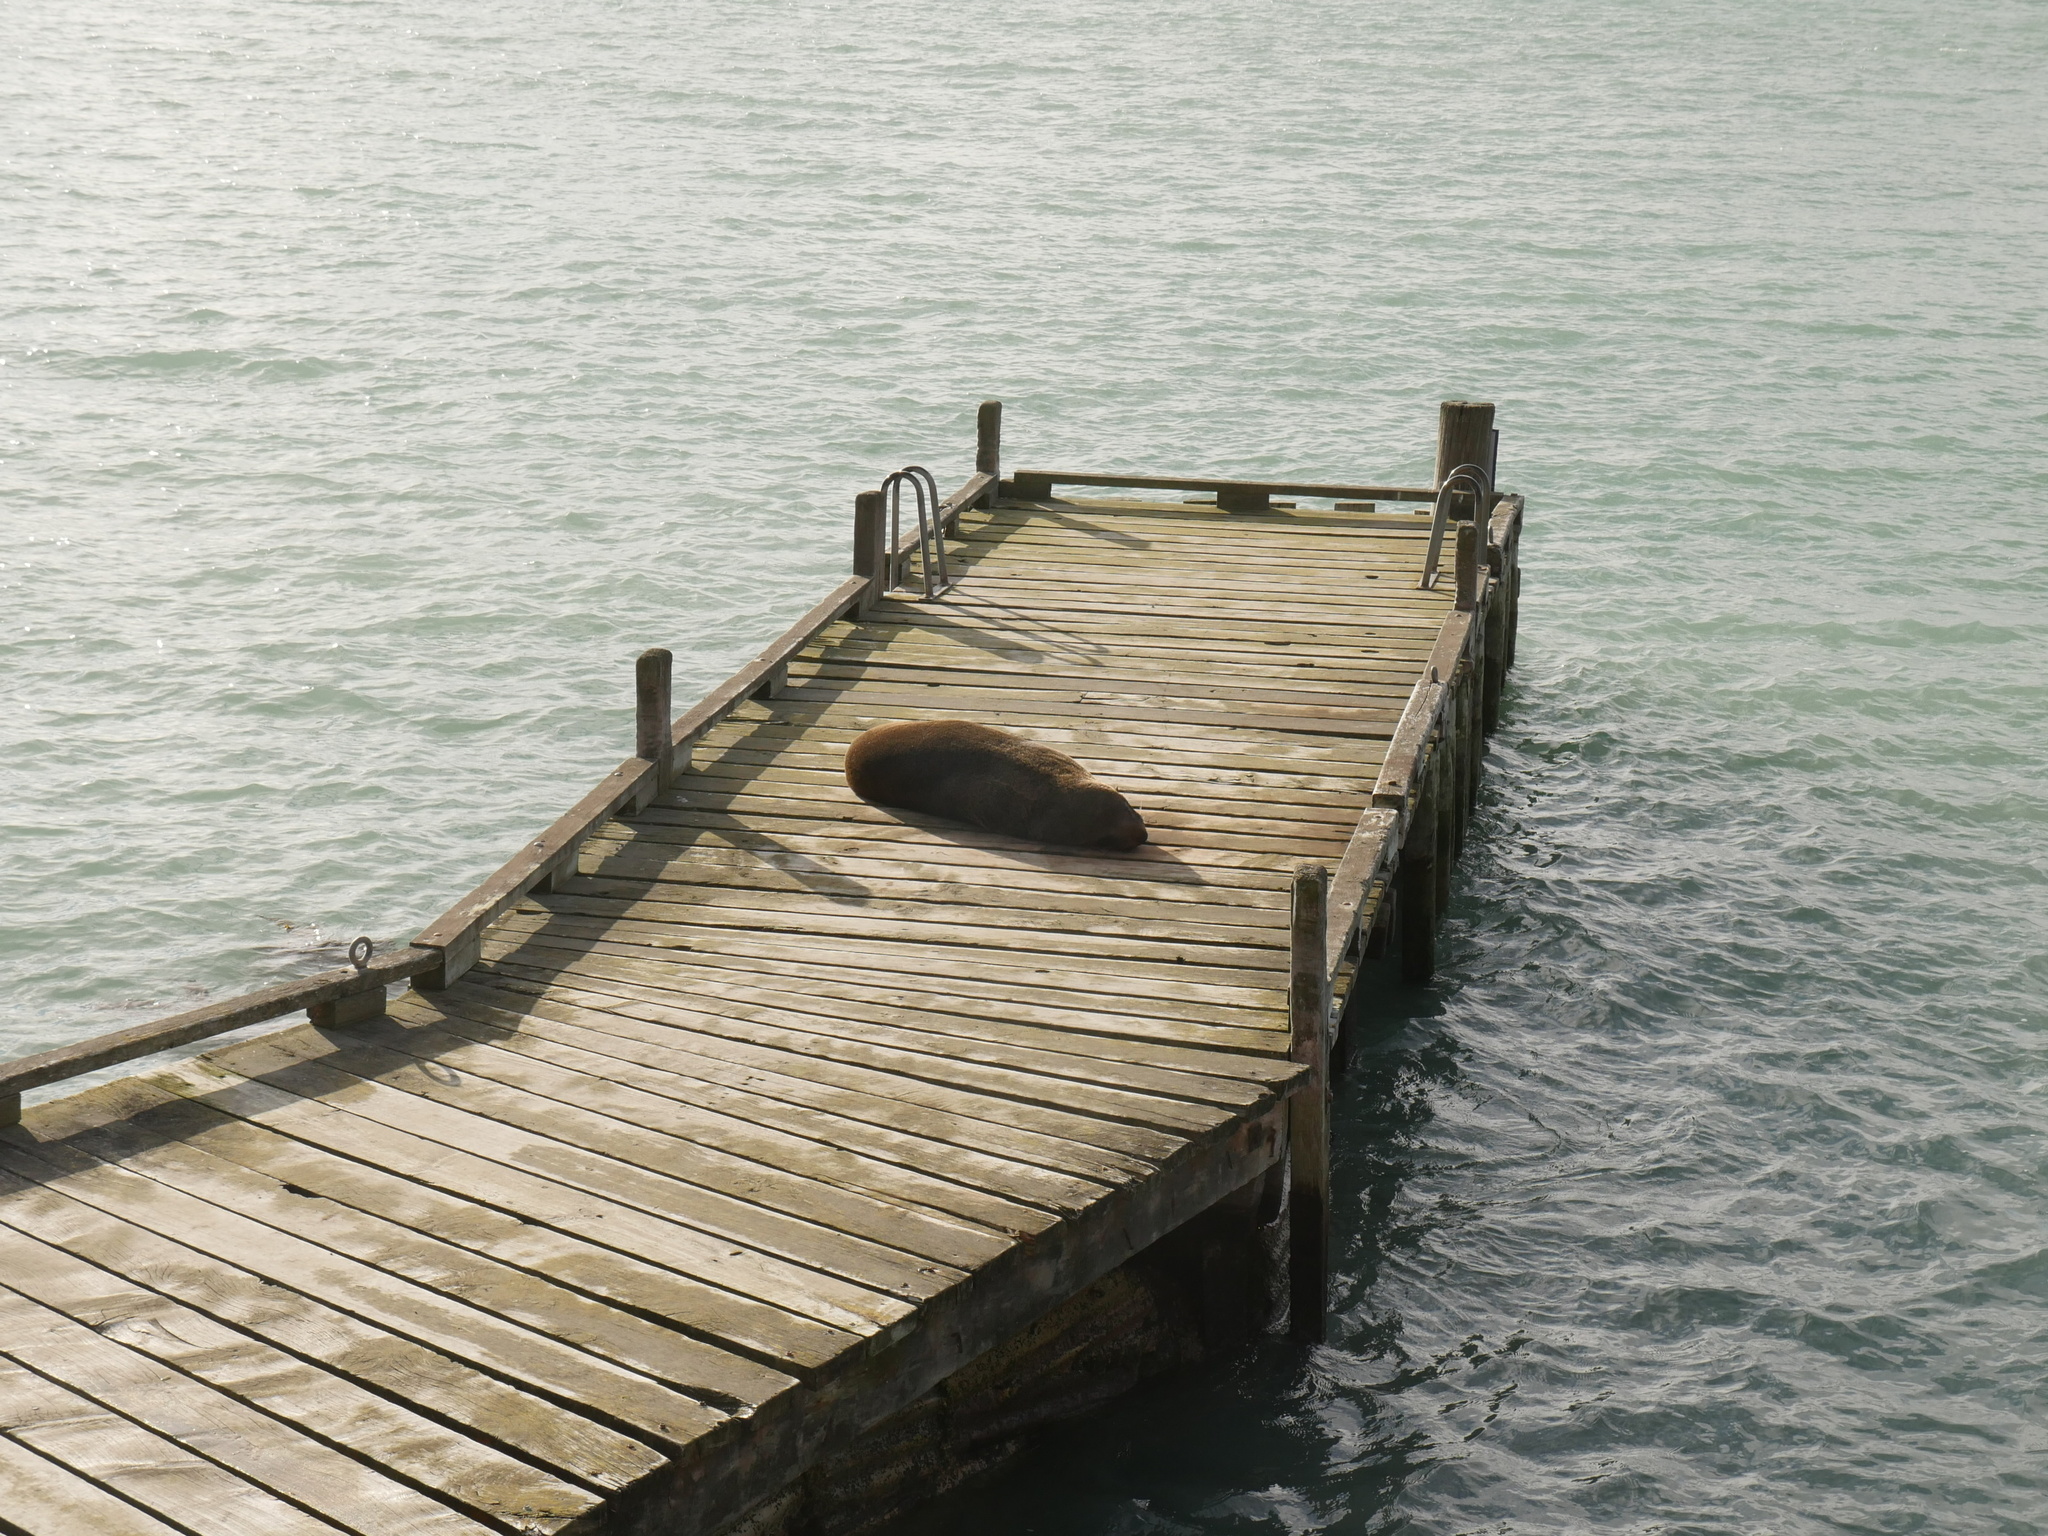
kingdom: Animalia
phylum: Chordata
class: Mammalia
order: Carnivora
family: Otariidae
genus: Arctocephalus
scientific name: Arctocephalus forsteri
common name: New zealand fur seal
